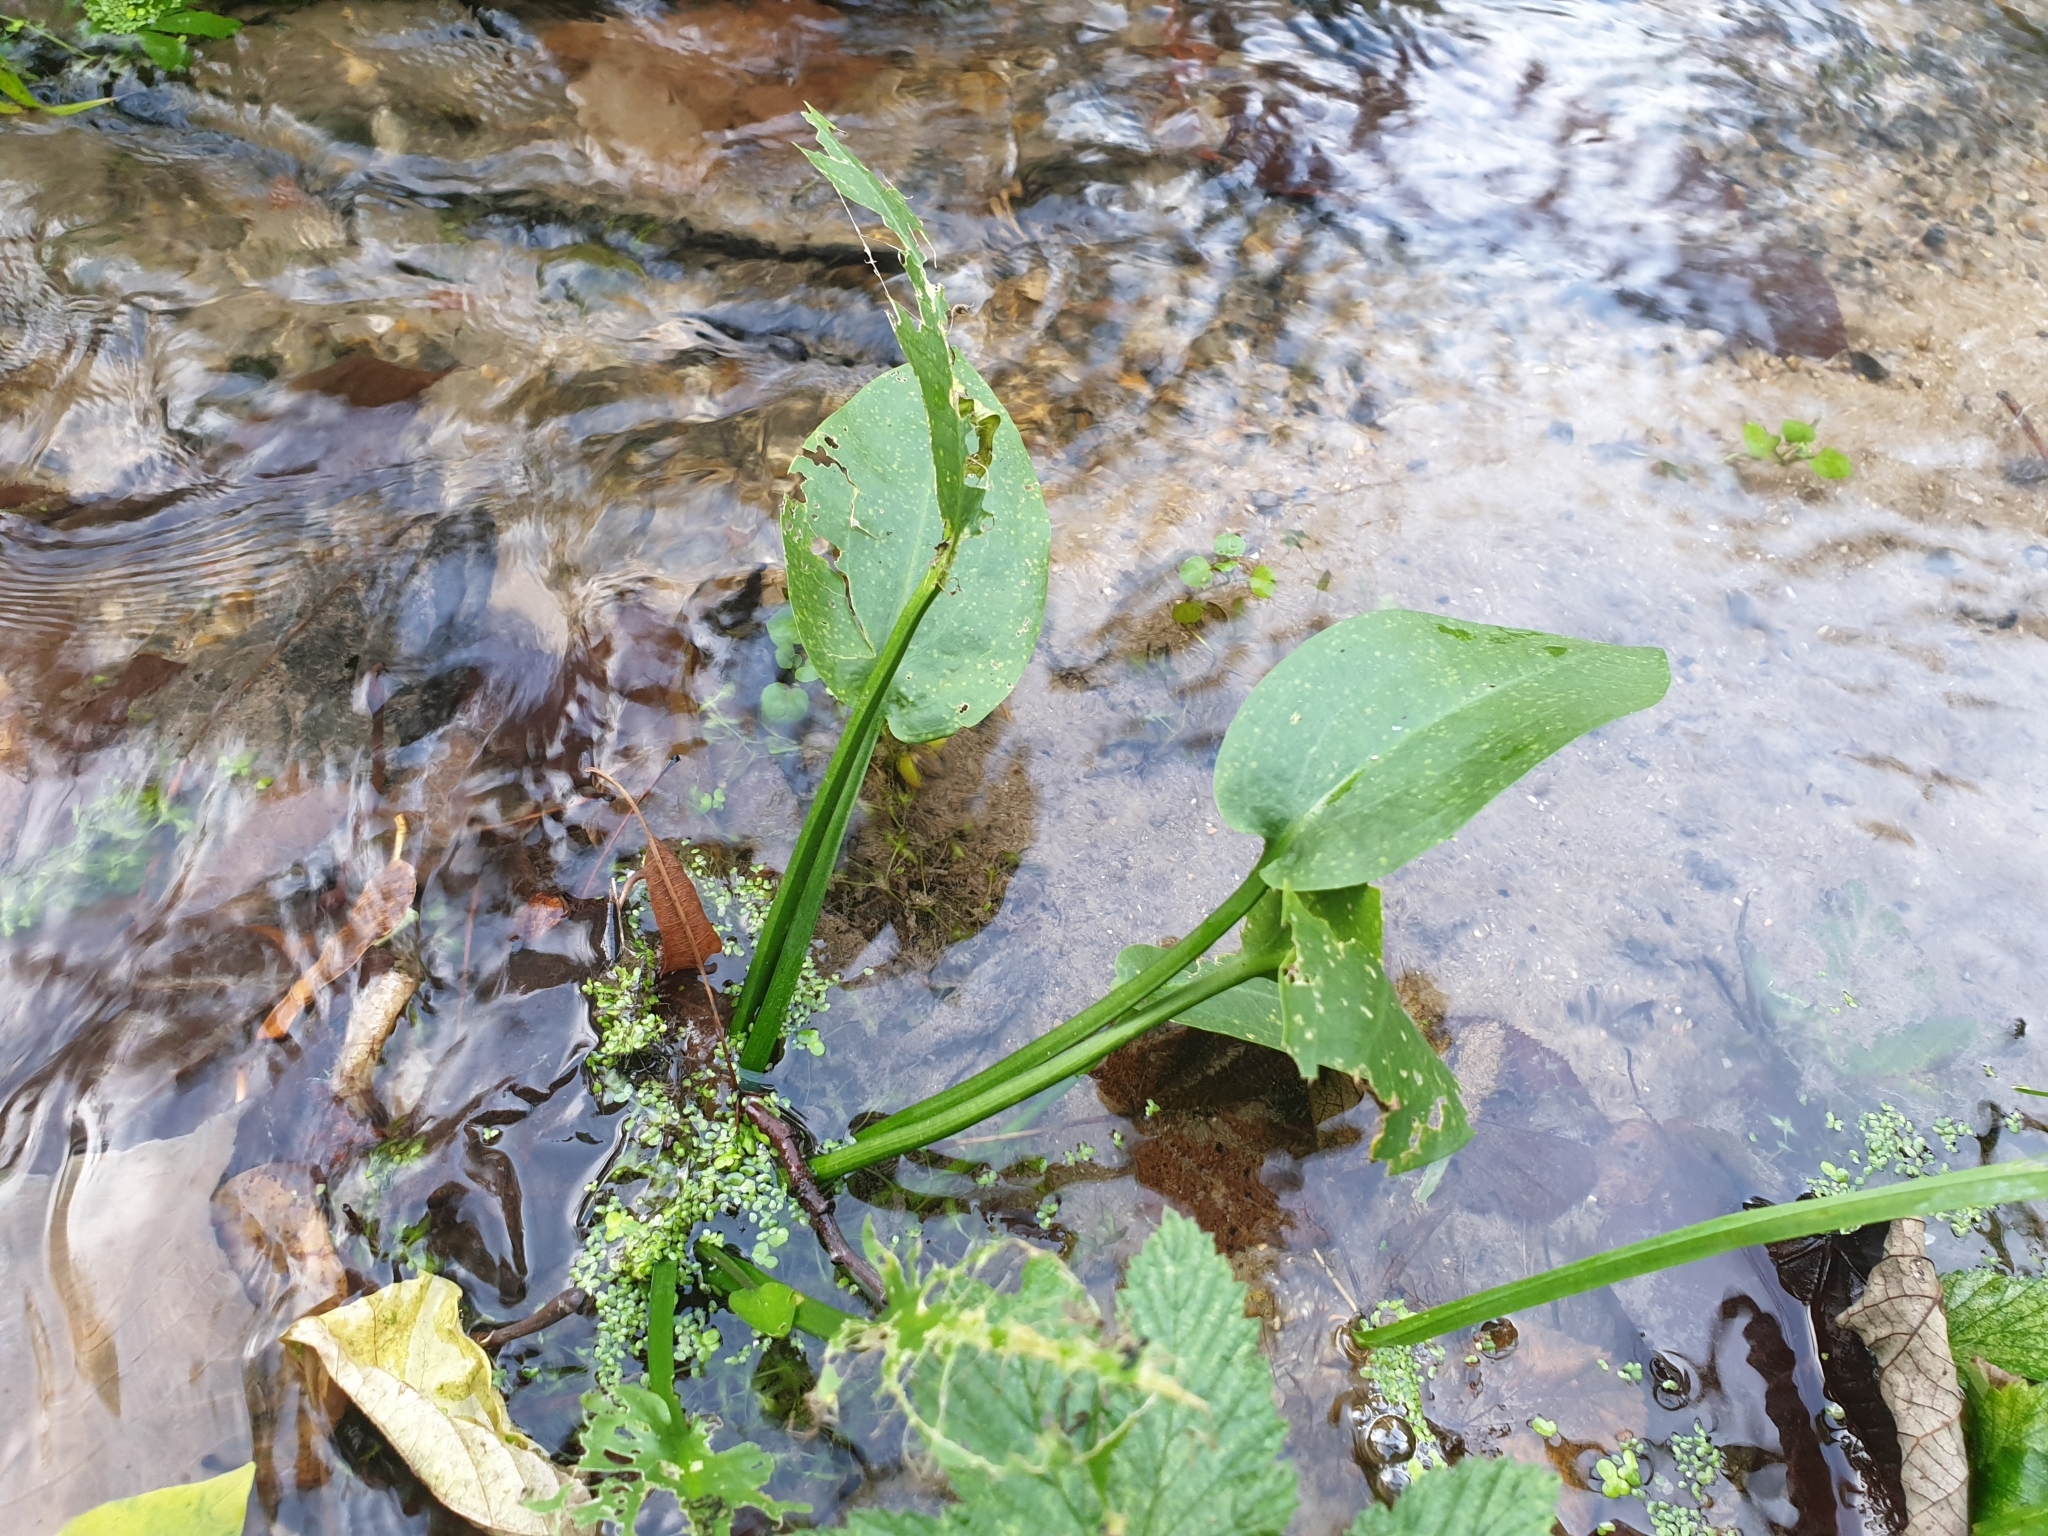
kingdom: Plantae
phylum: Tracheophyta
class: Liliopsida
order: Alismatales
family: Alismataceae
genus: Alisma
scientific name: Alisma plantago-aquatica
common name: Water-plantain
